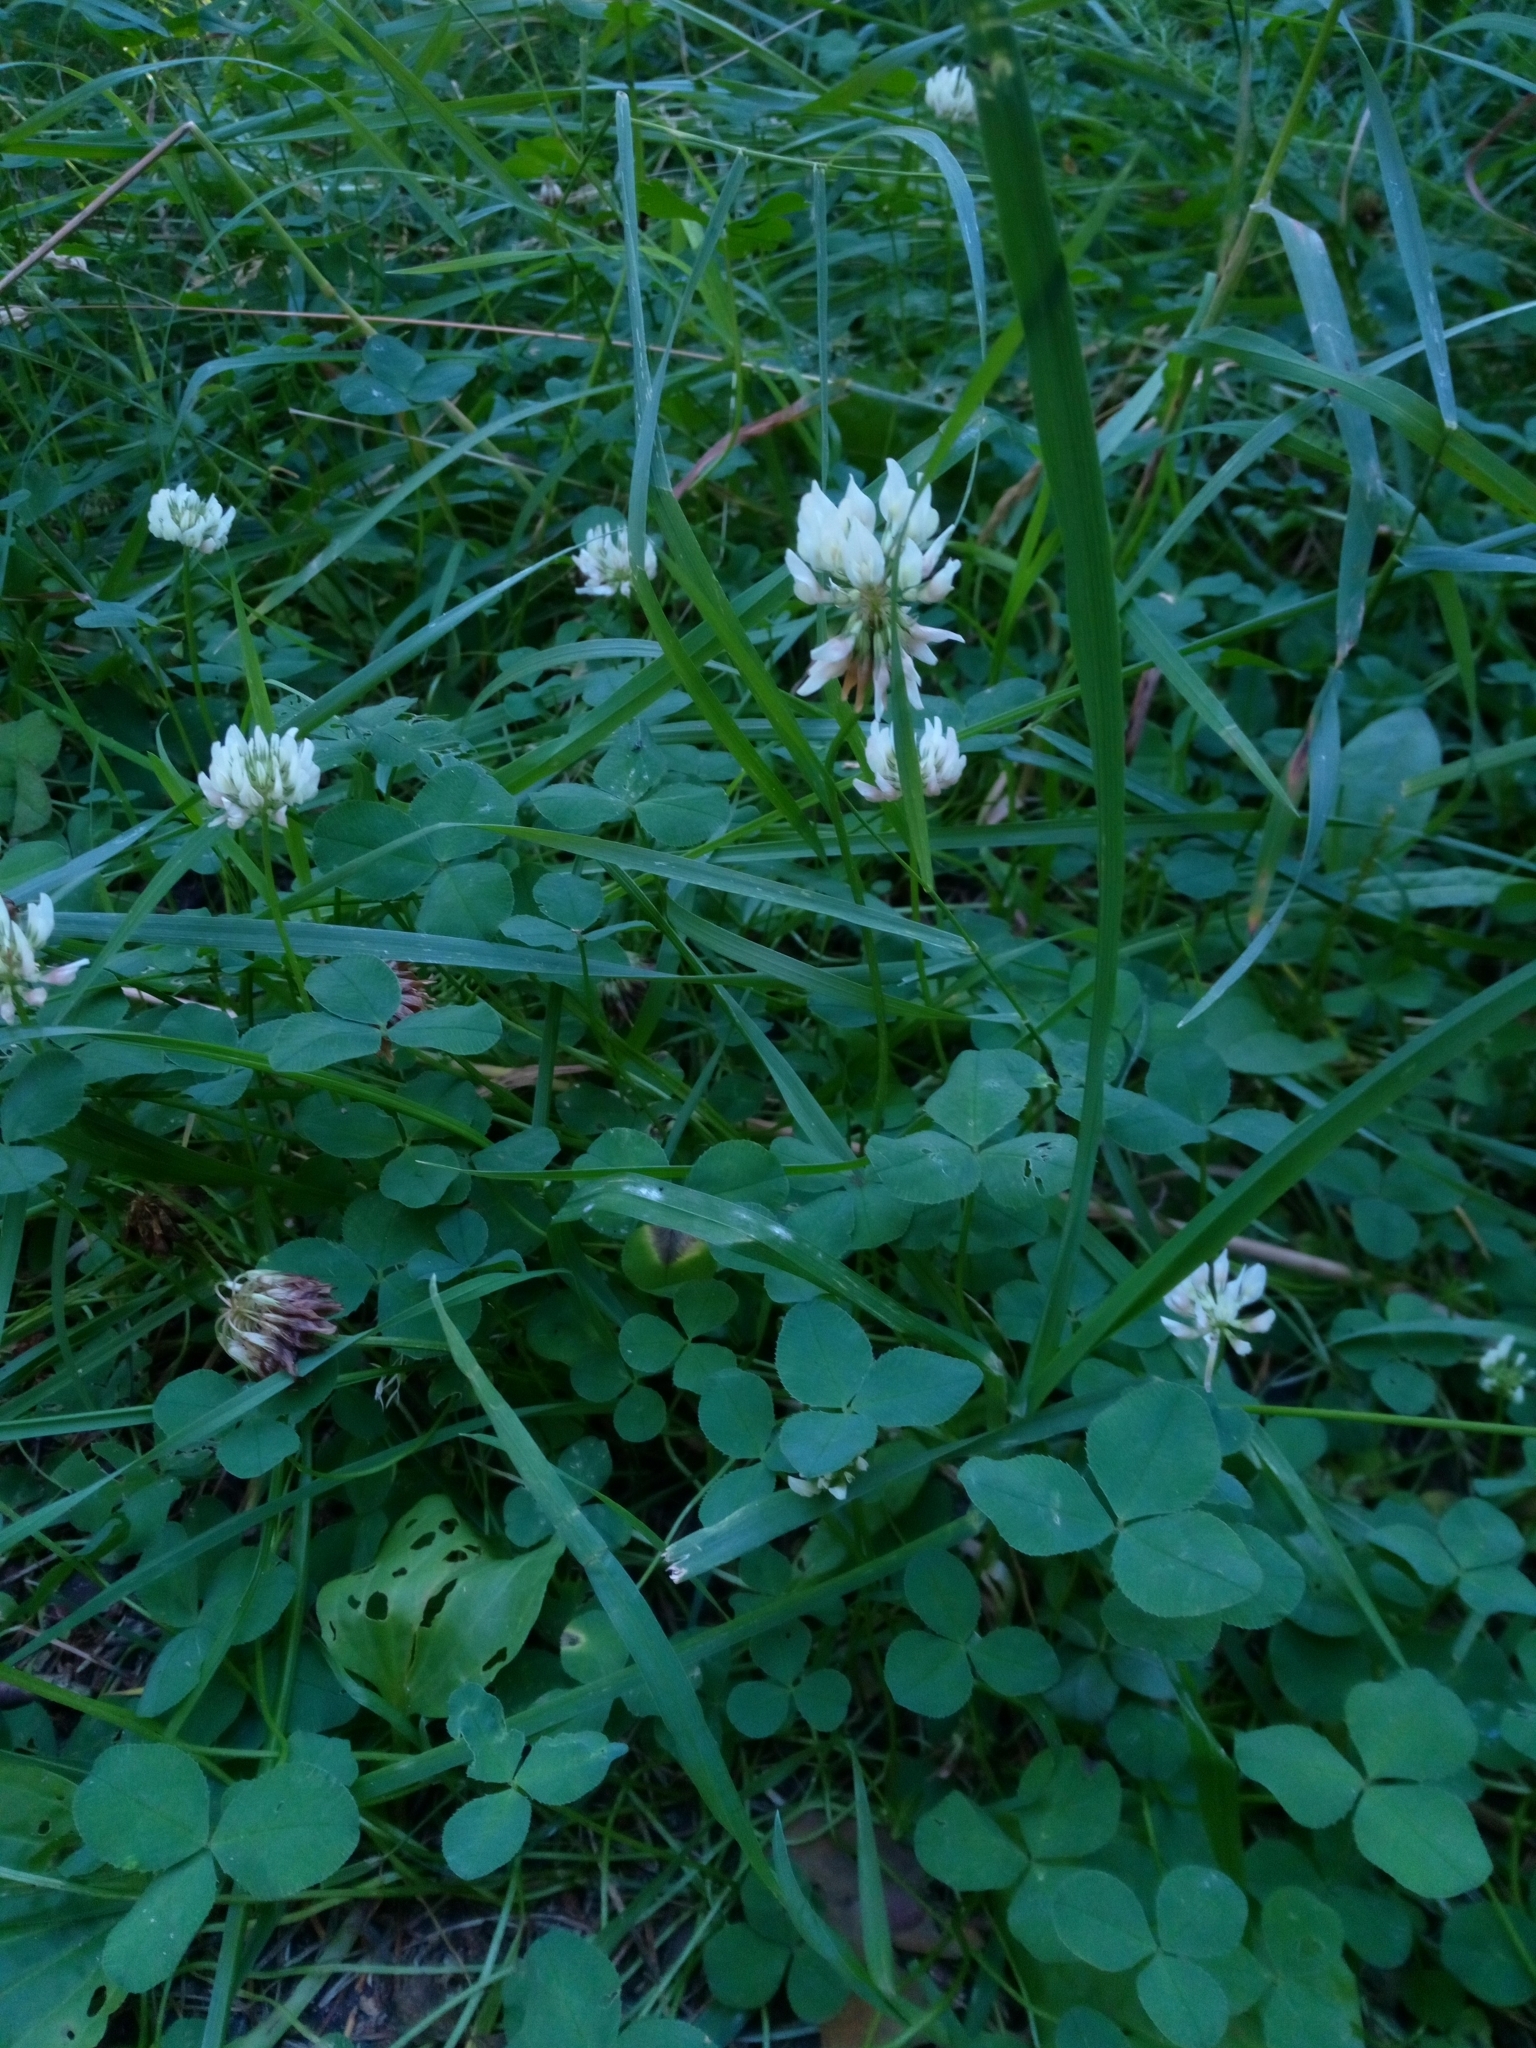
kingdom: Plantae
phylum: Tracheophyta
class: Magnoliopsida
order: Fabales
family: Fabaceae
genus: Trifolium
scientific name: Trifolium repens
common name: White clover
